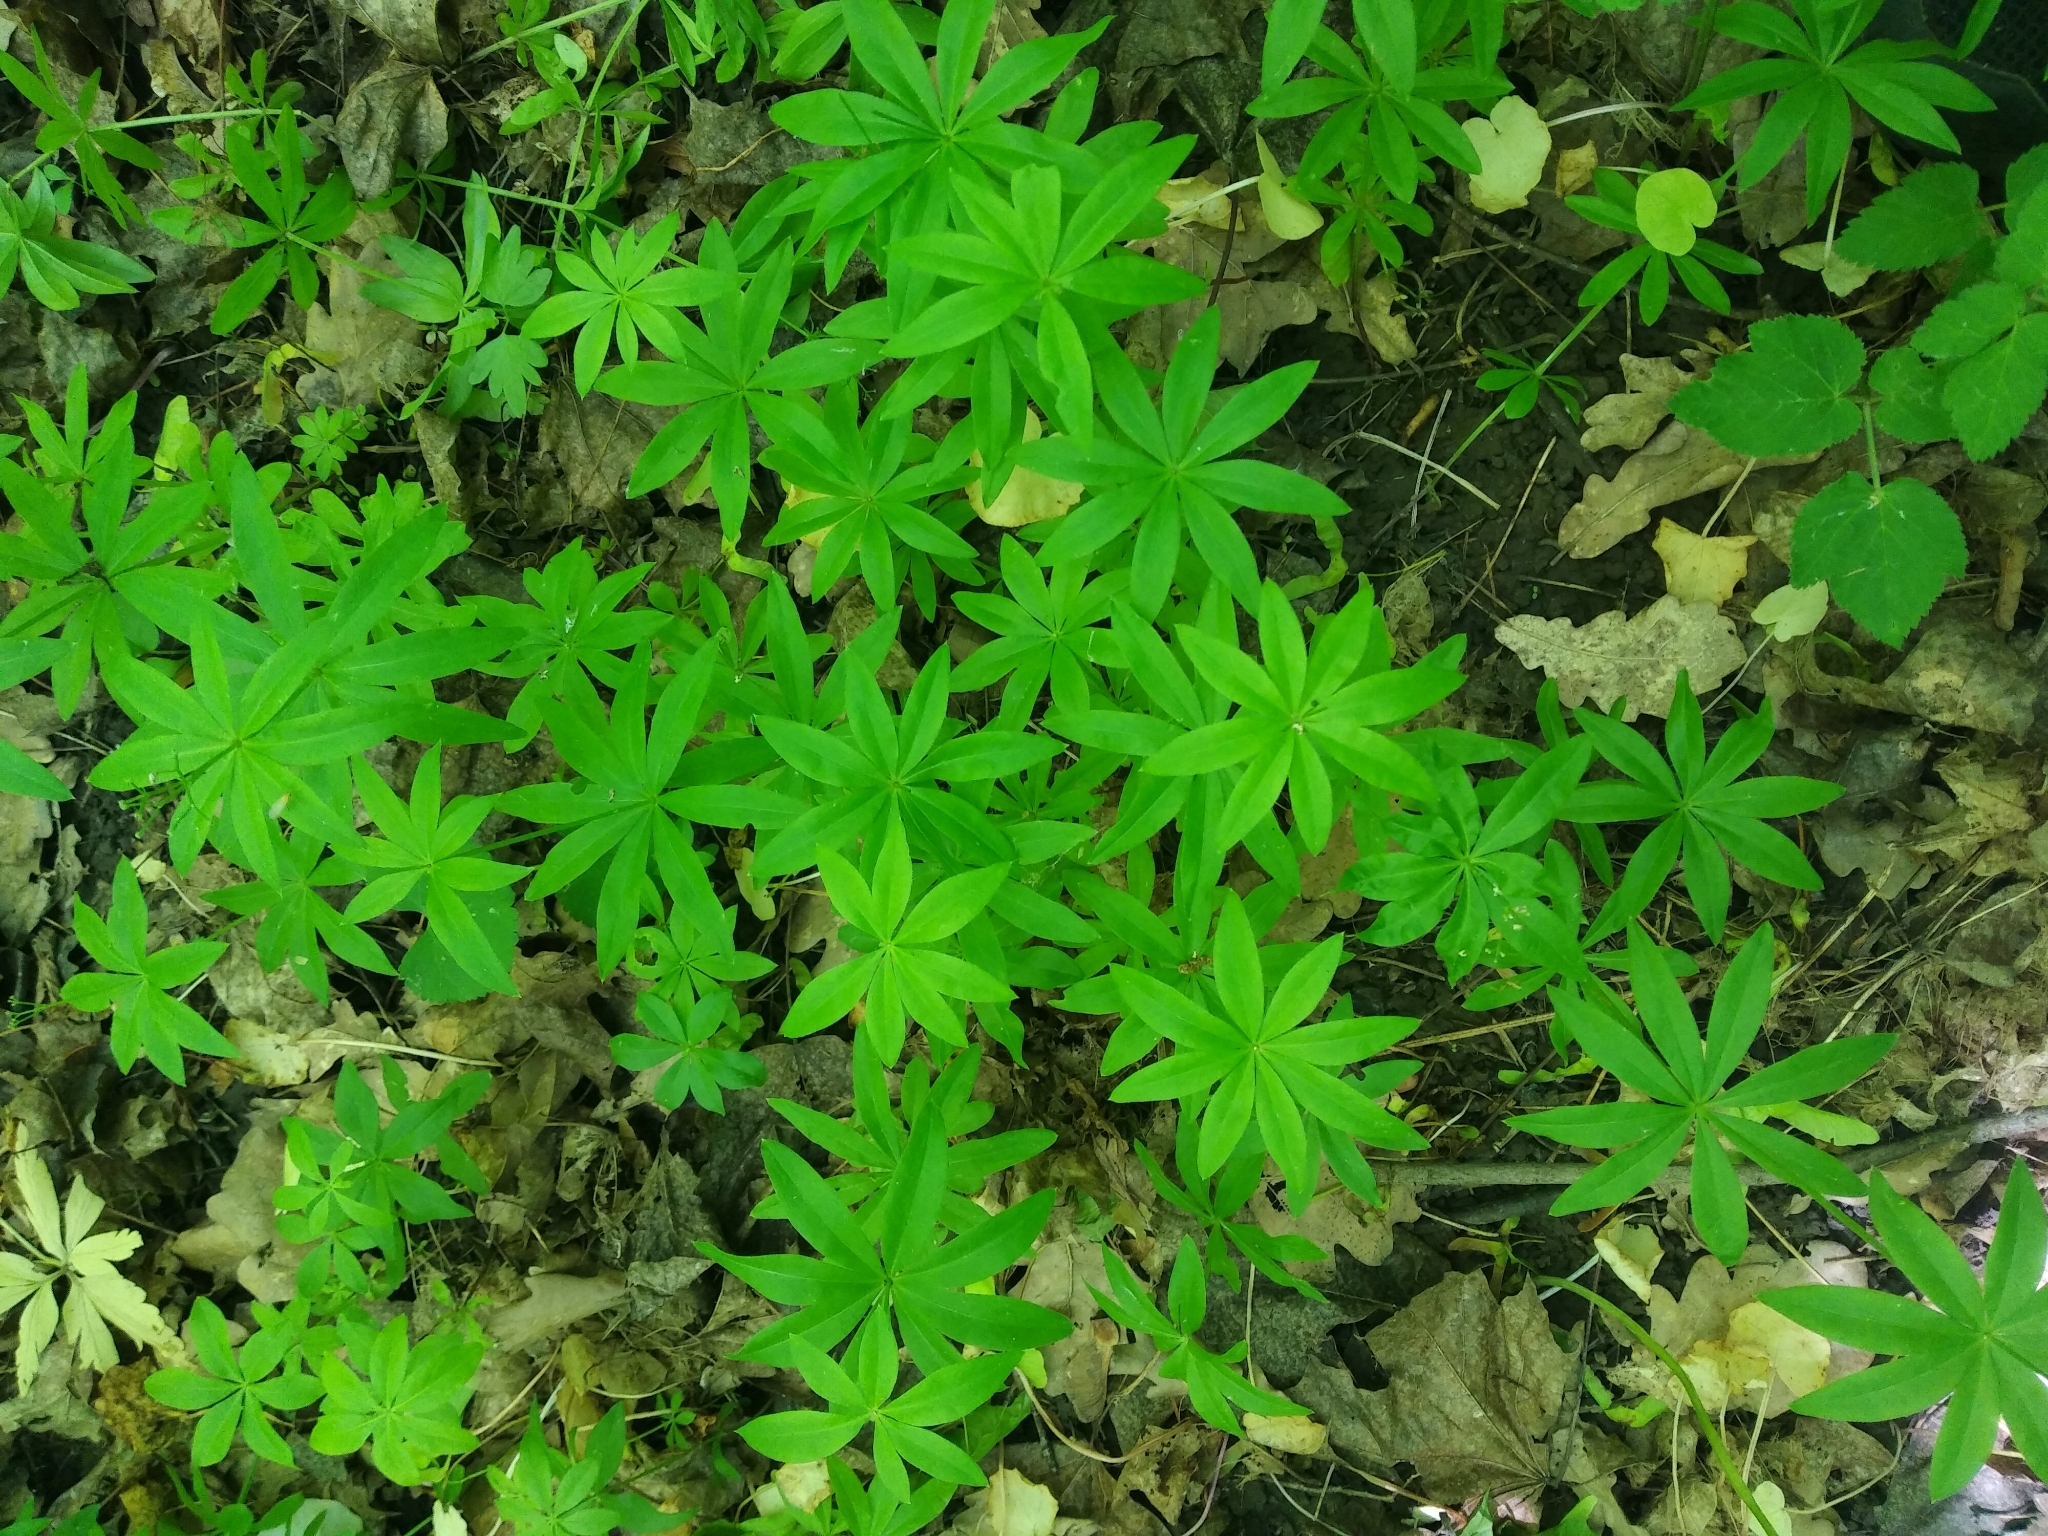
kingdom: Plantae
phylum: Tracheophyta
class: Magnoliopsida
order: Gentianales
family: Rubiaceae
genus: Galium
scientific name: Galium odoratum
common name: Sweet woodruff
